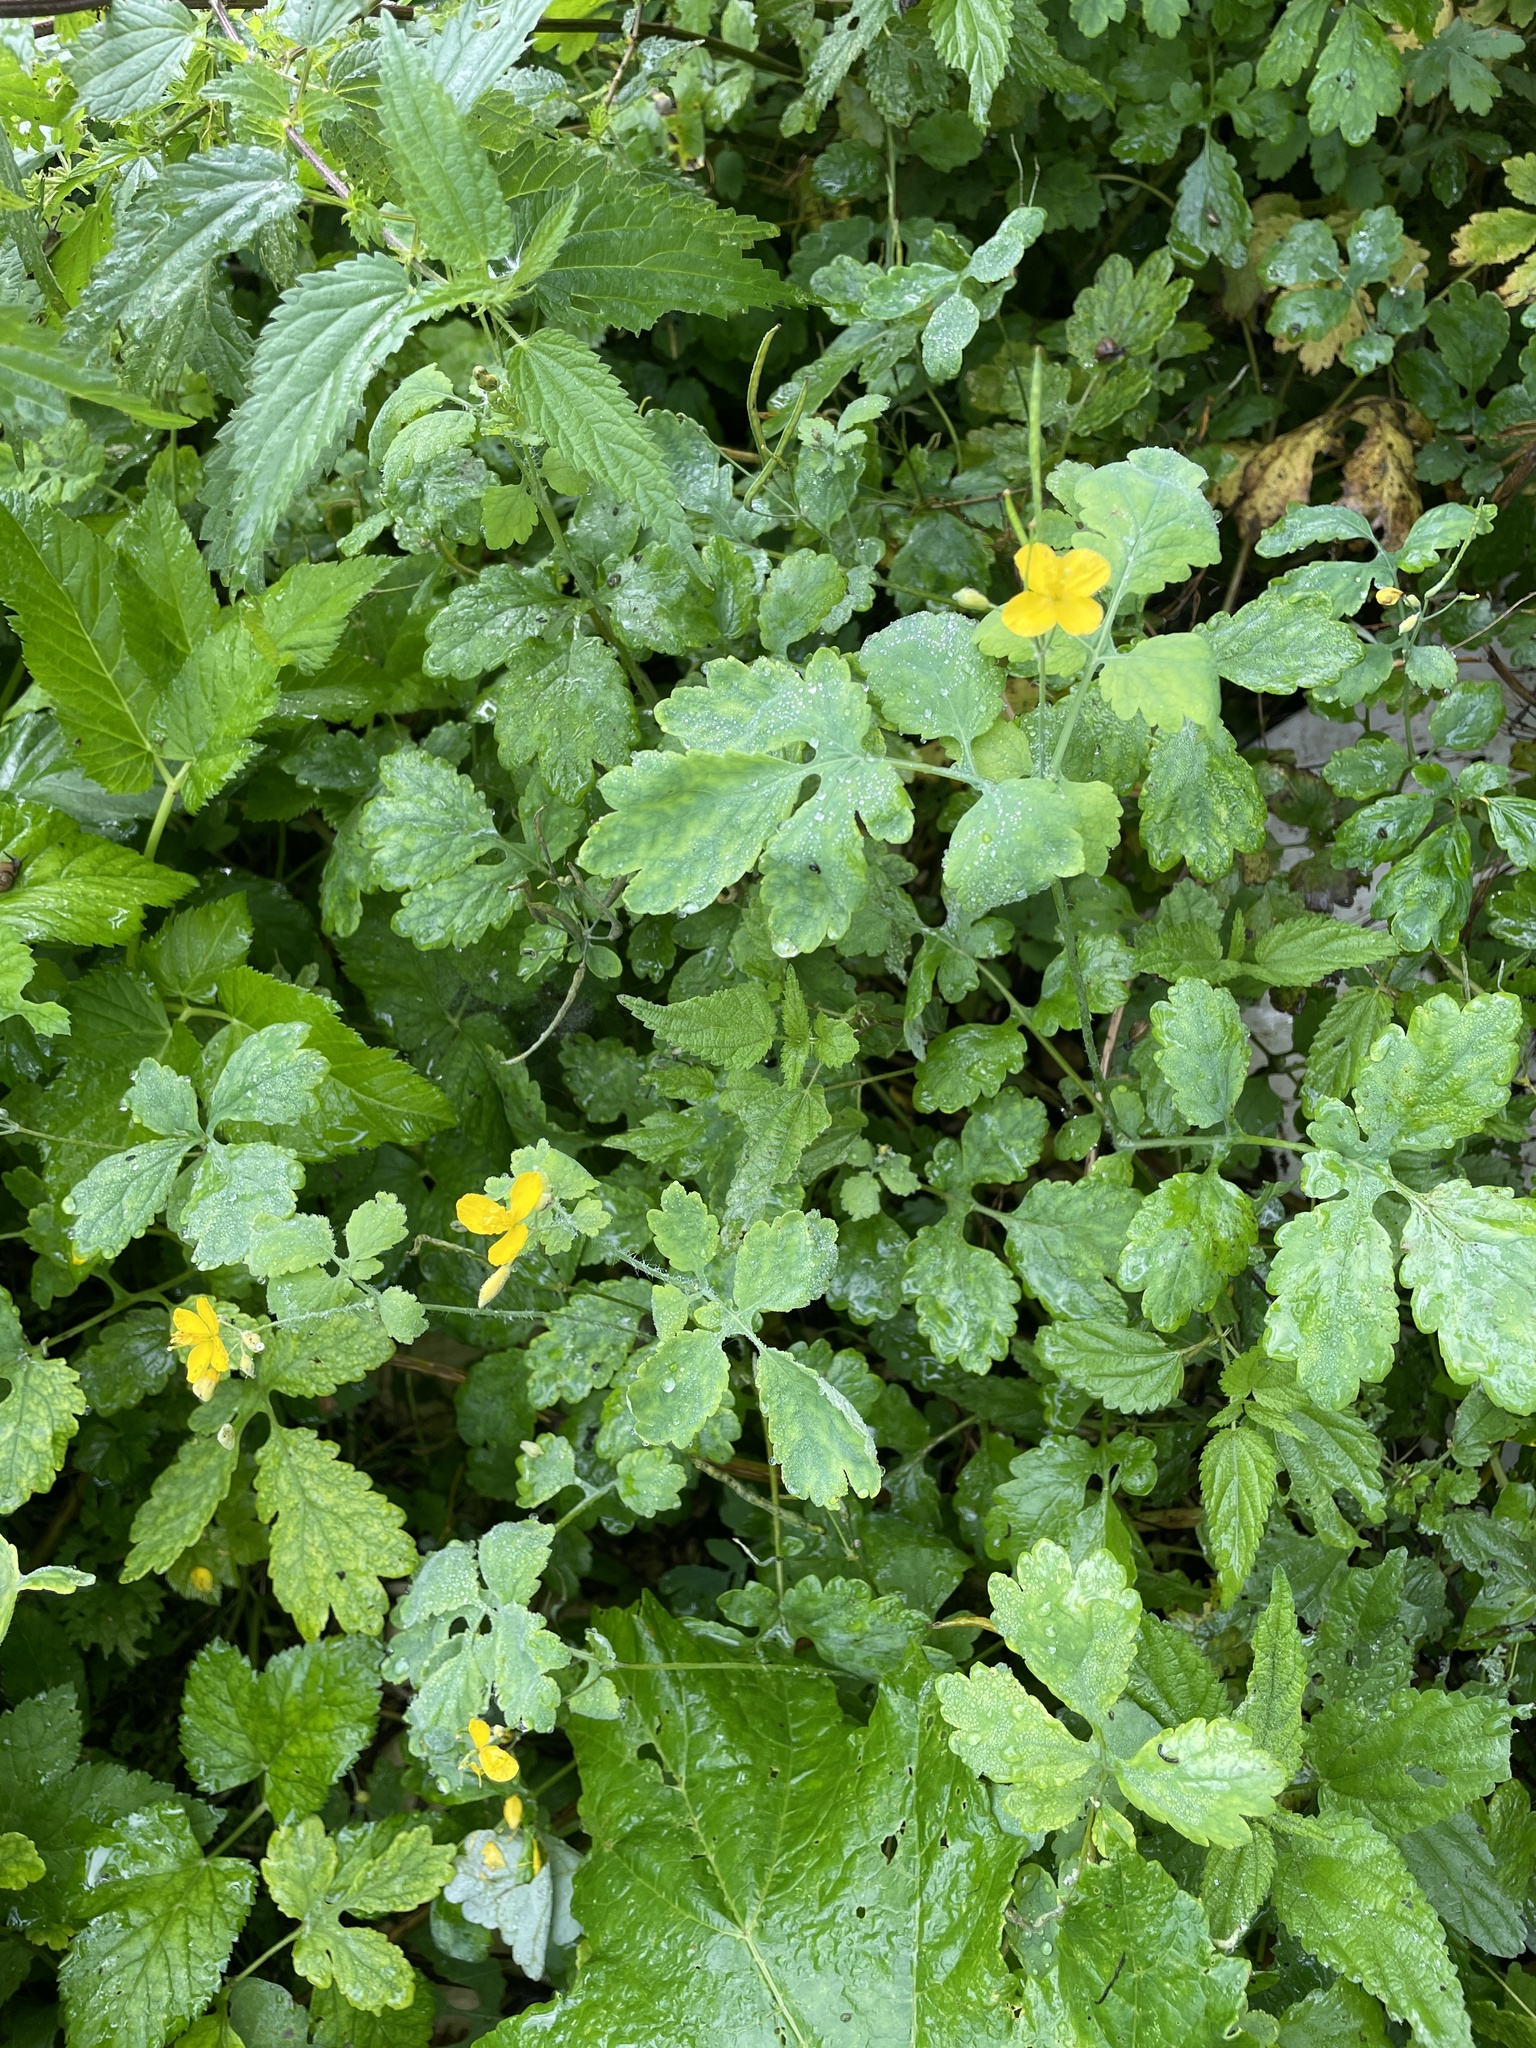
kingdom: Plantae
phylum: Tracheophyta
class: Magnoliopsida
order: Ranunculales
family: Papaveraceae
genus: Chelidonium
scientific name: Chelidonium majus
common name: Greater celandine
